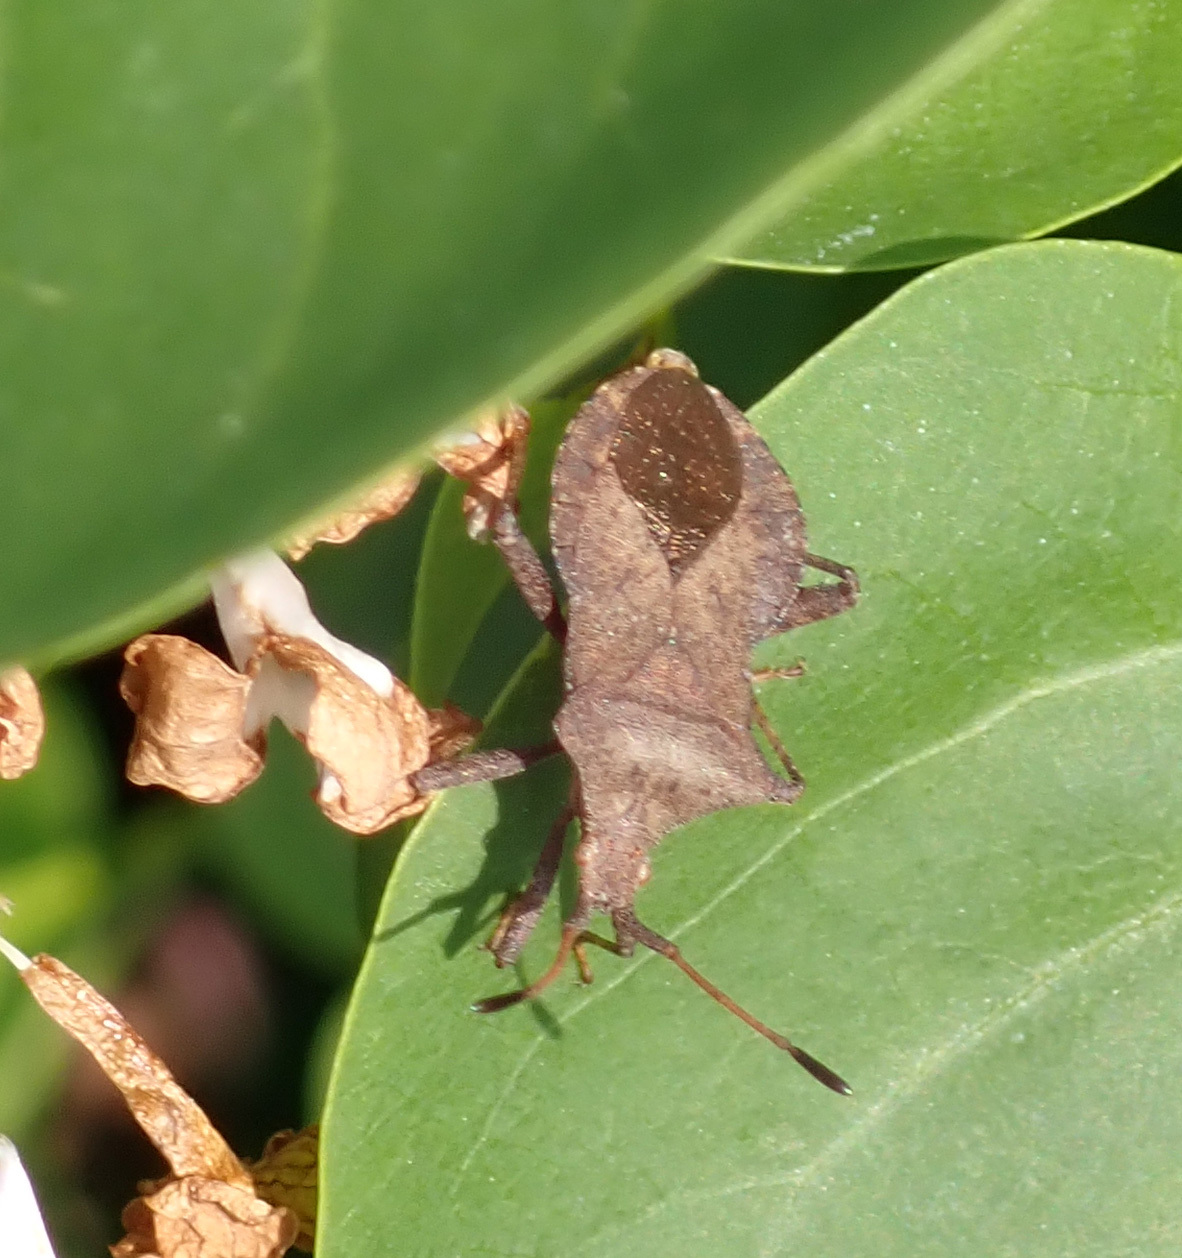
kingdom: Animalia
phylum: Arthropoda
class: Insecta
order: Hemiptera
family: Coreidae
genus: Coreus
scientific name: Coreus marginatus
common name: Dock bug
